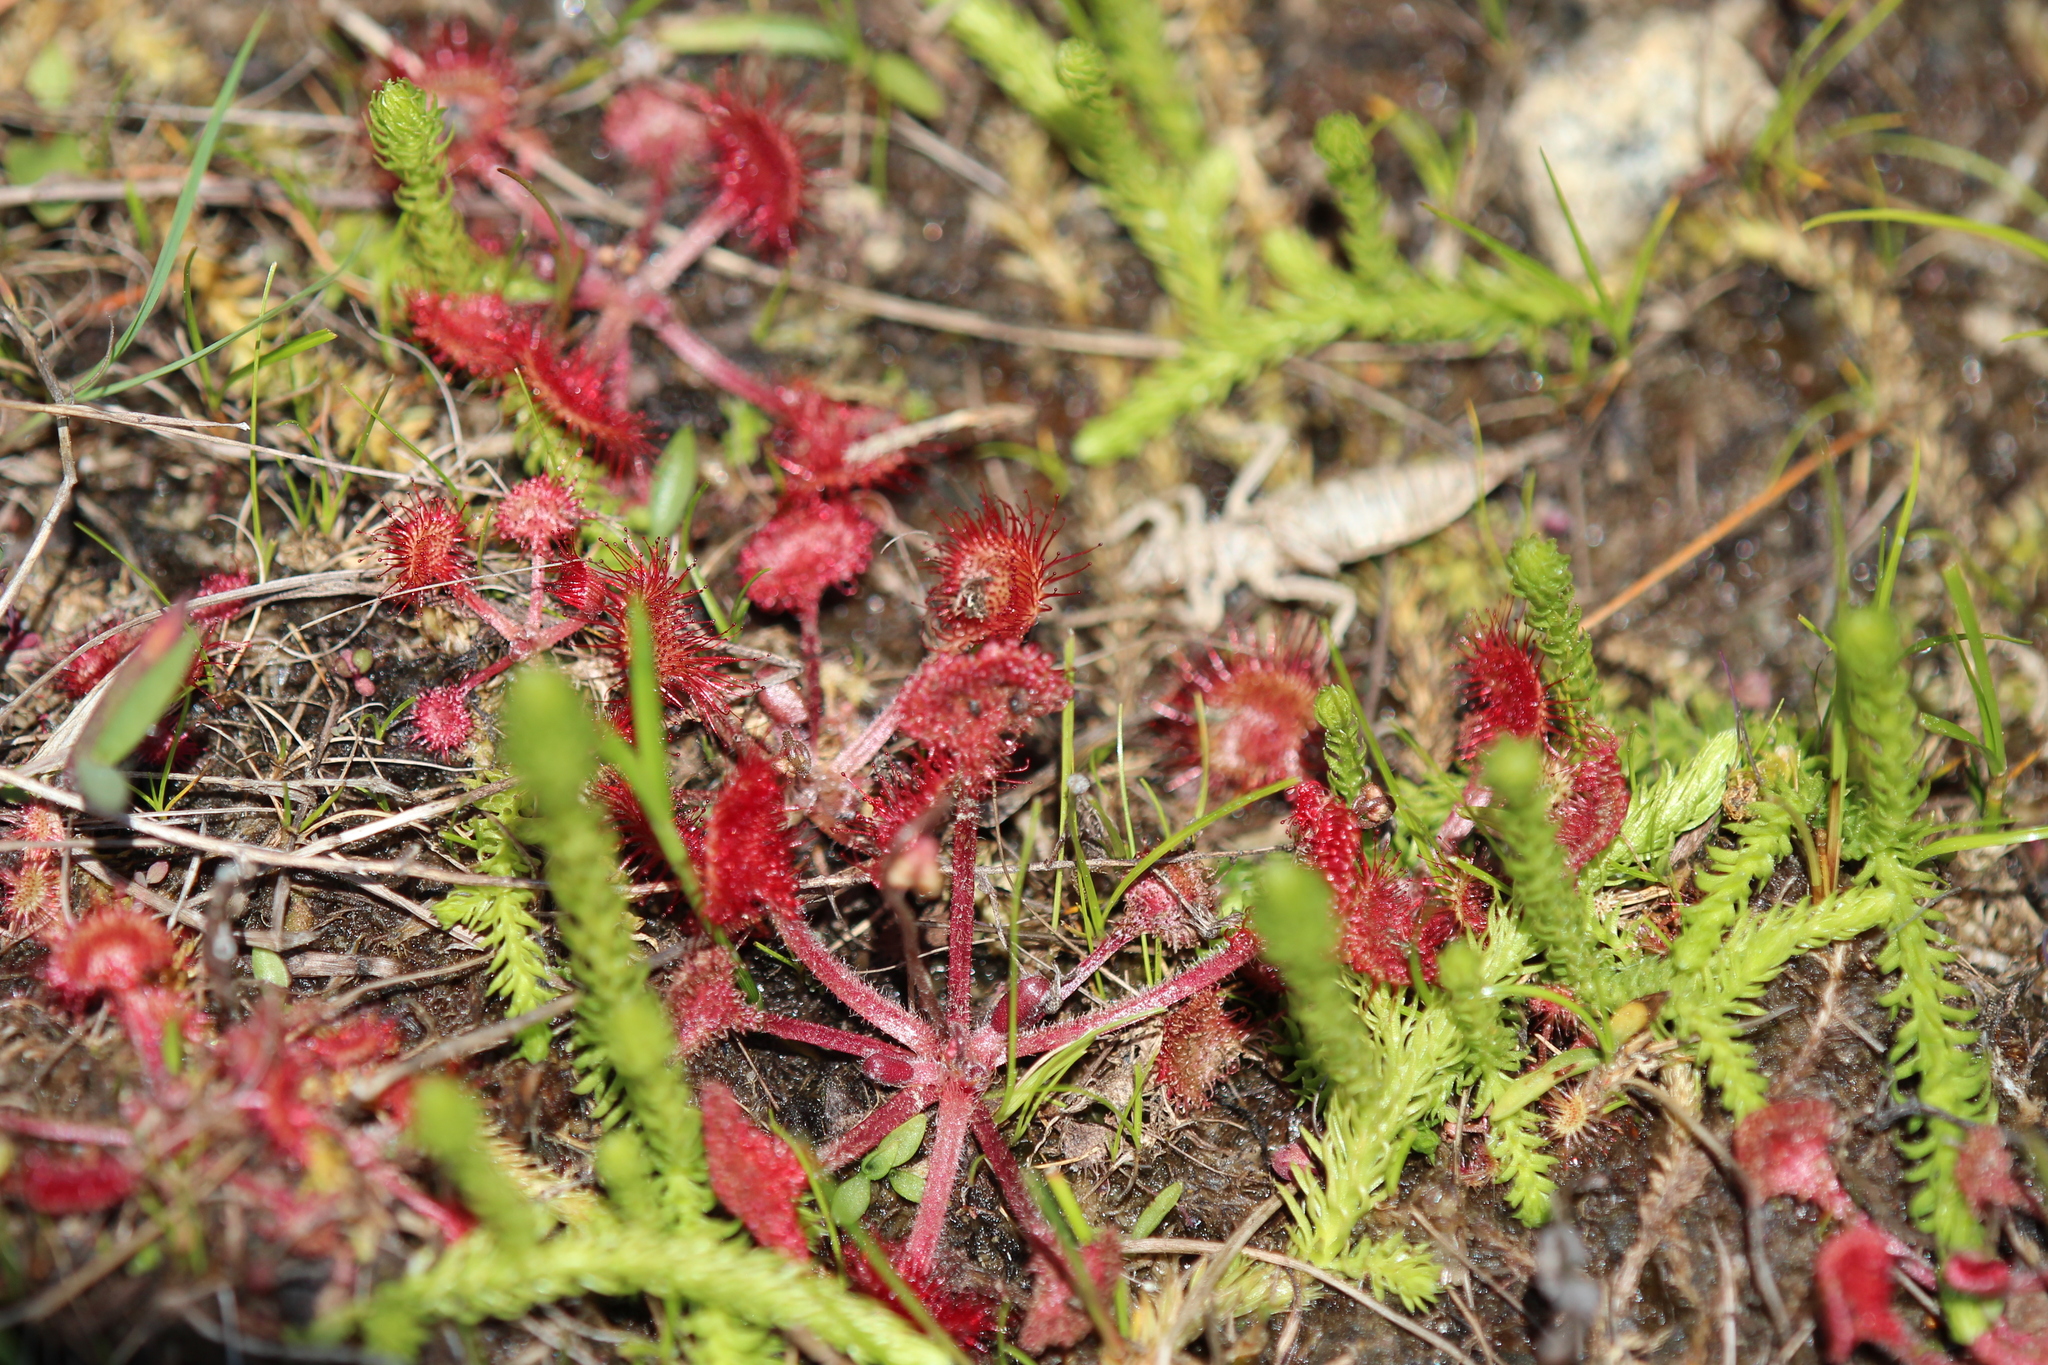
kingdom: Plantae
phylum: Tracheophyta
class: Magnoliopsida
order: Caryophyllales
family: Droseraceae
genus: Drosera
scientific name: Drosera rotundifolia
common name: Round-leaved sundew
